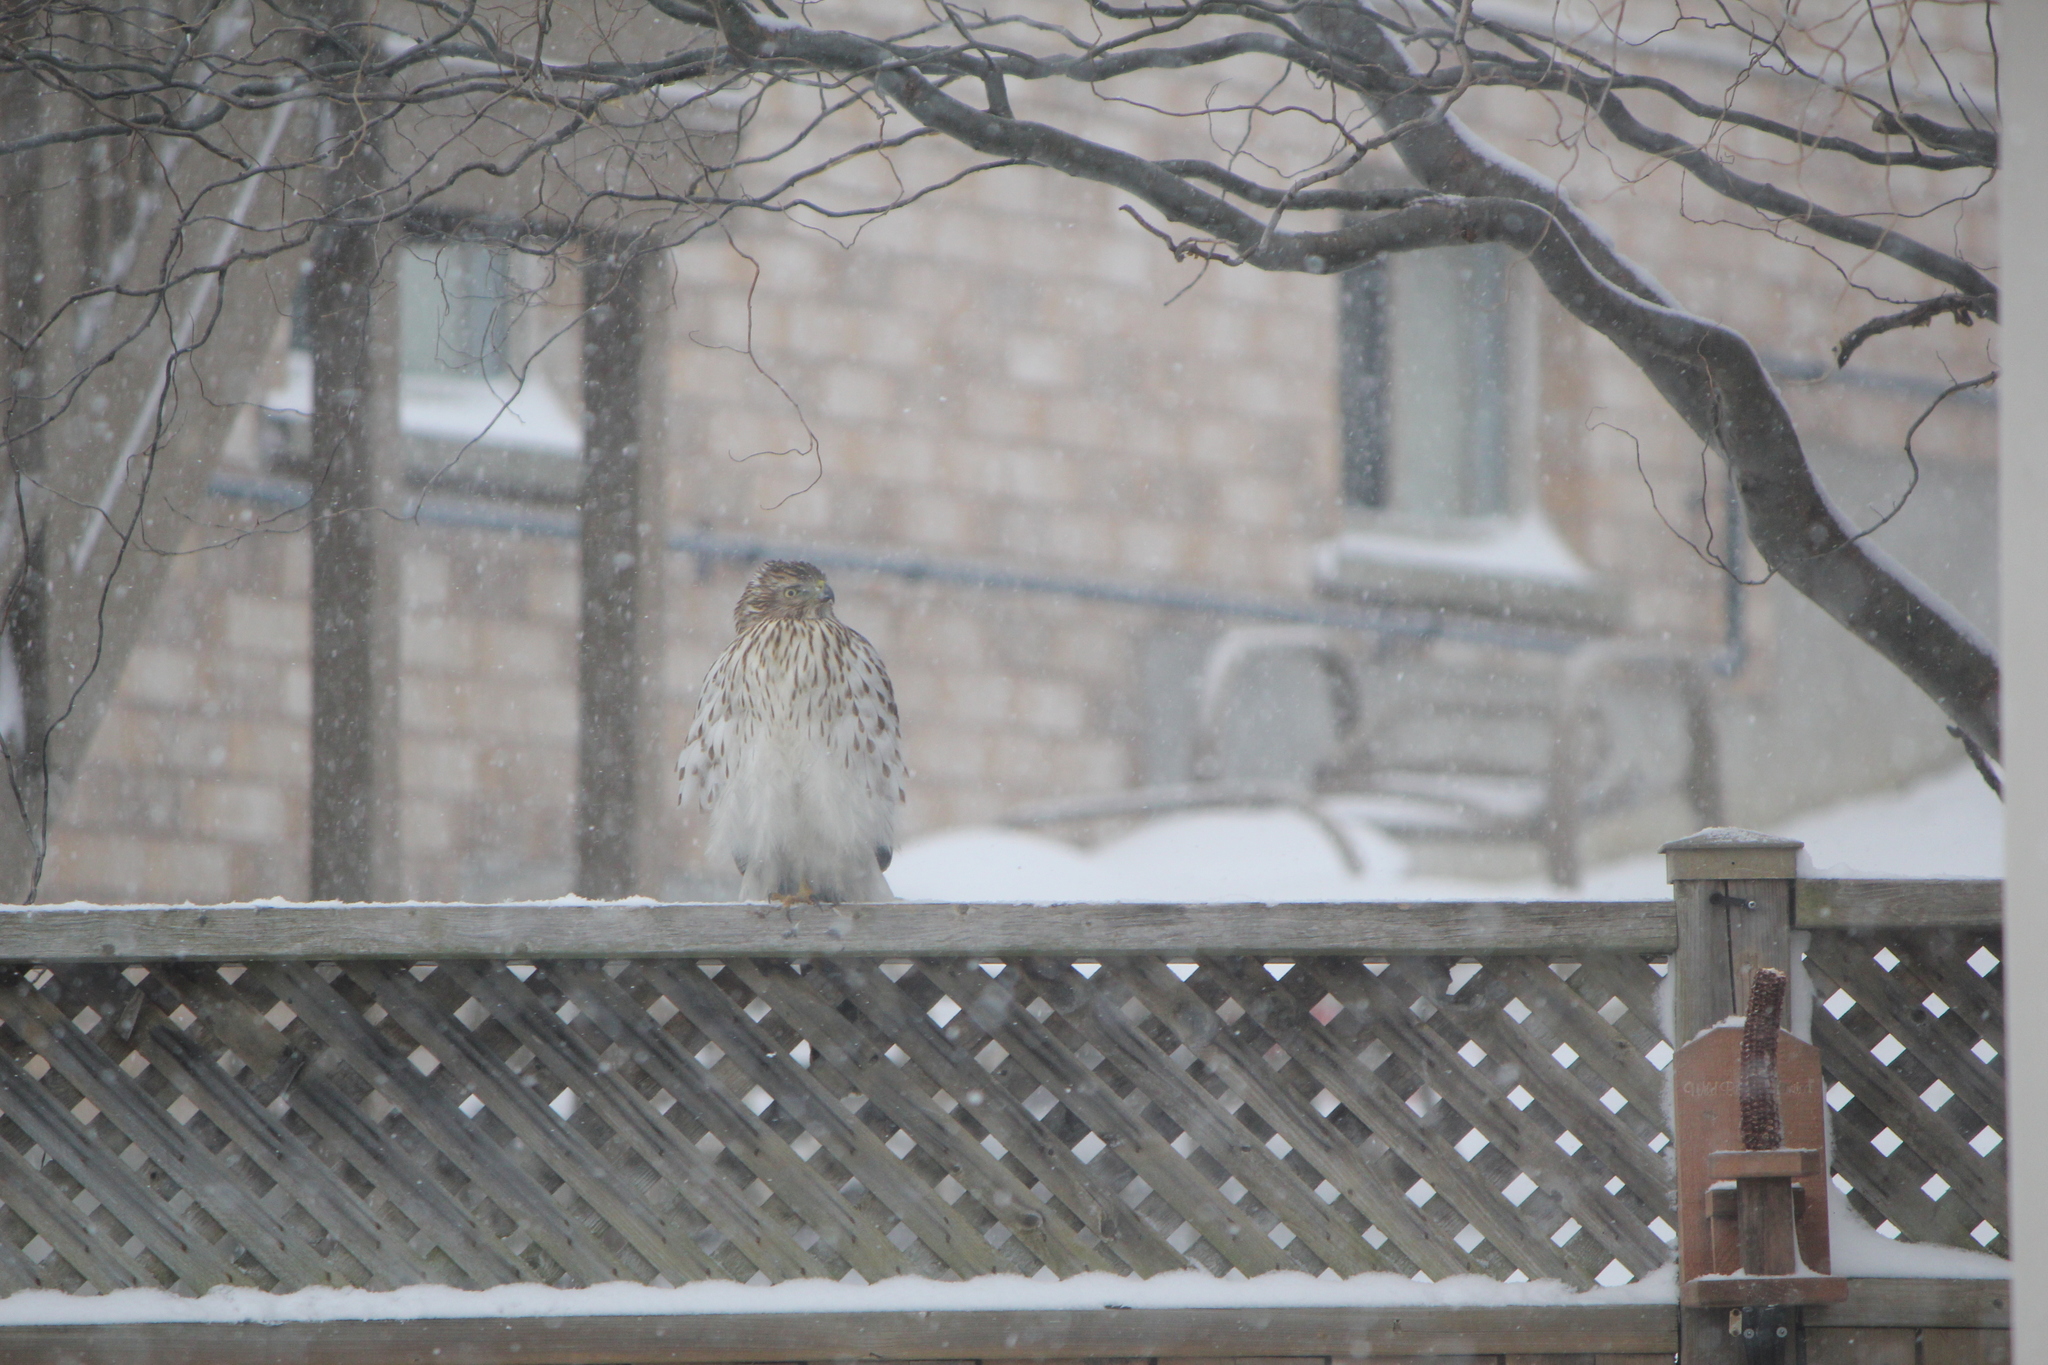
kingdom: Animalia
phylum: Chordata
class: Aves
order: Accipitriformes
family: Accipitridae
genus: Accipiter
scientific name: Accipiter cooperii
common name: Cooper's hawk
